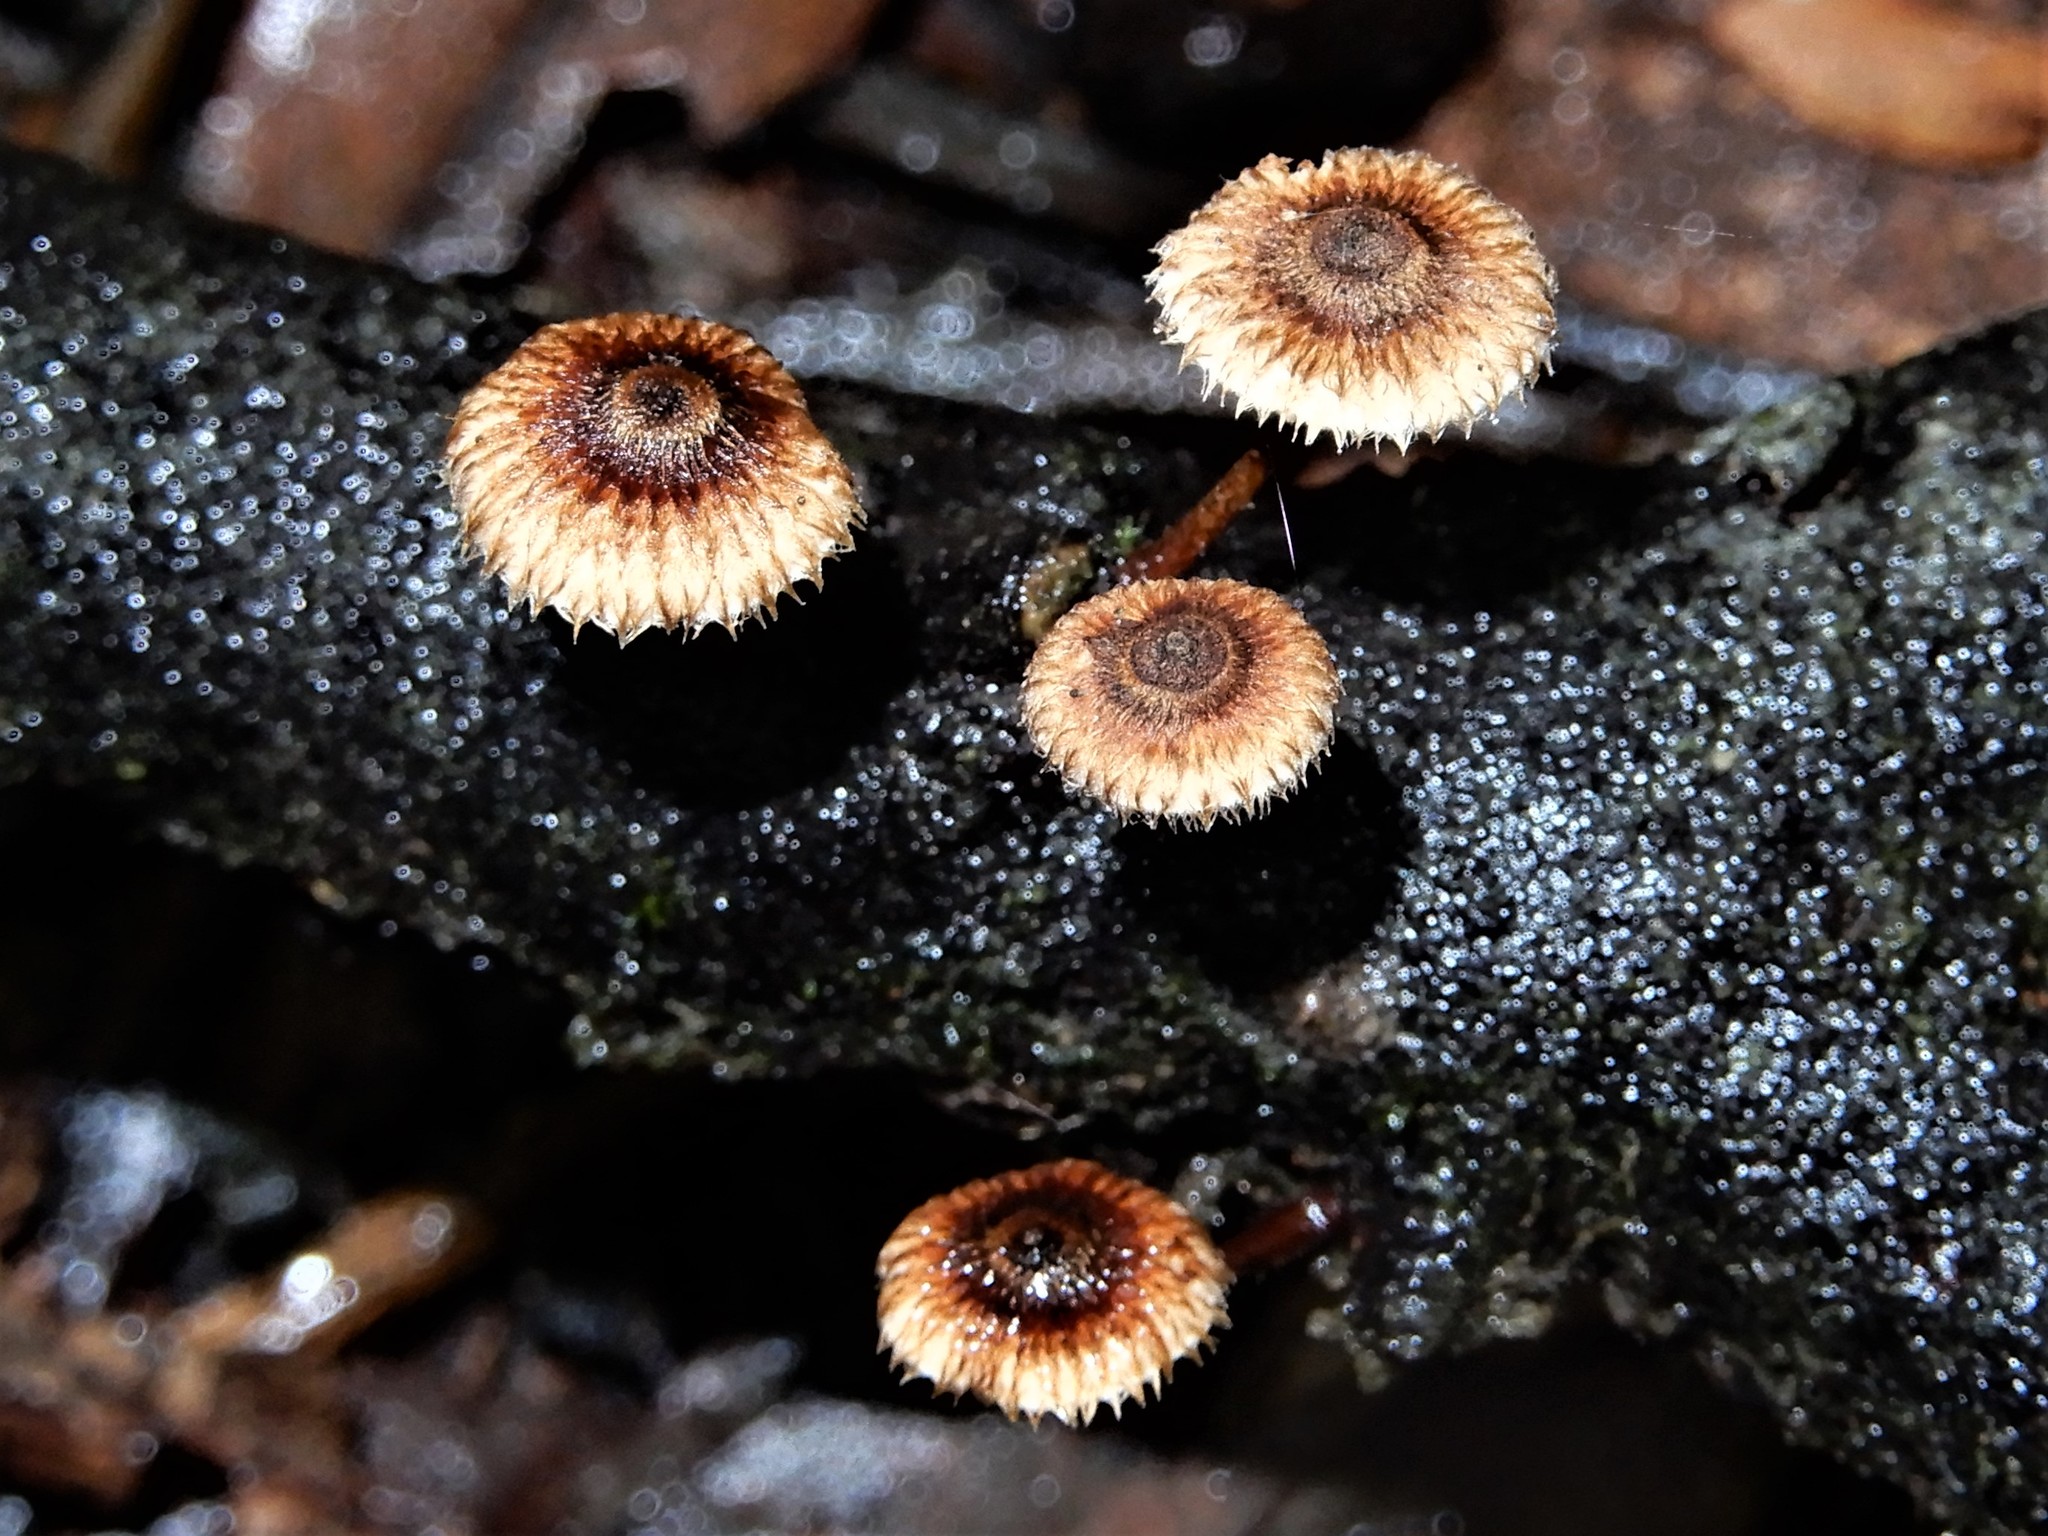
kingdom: Fungi
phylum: Basidiomycota
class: Agaricomycetes
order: Agaricales
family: Marasmiaceae
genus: Crinipellis
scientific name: Crinipellis filiformis
